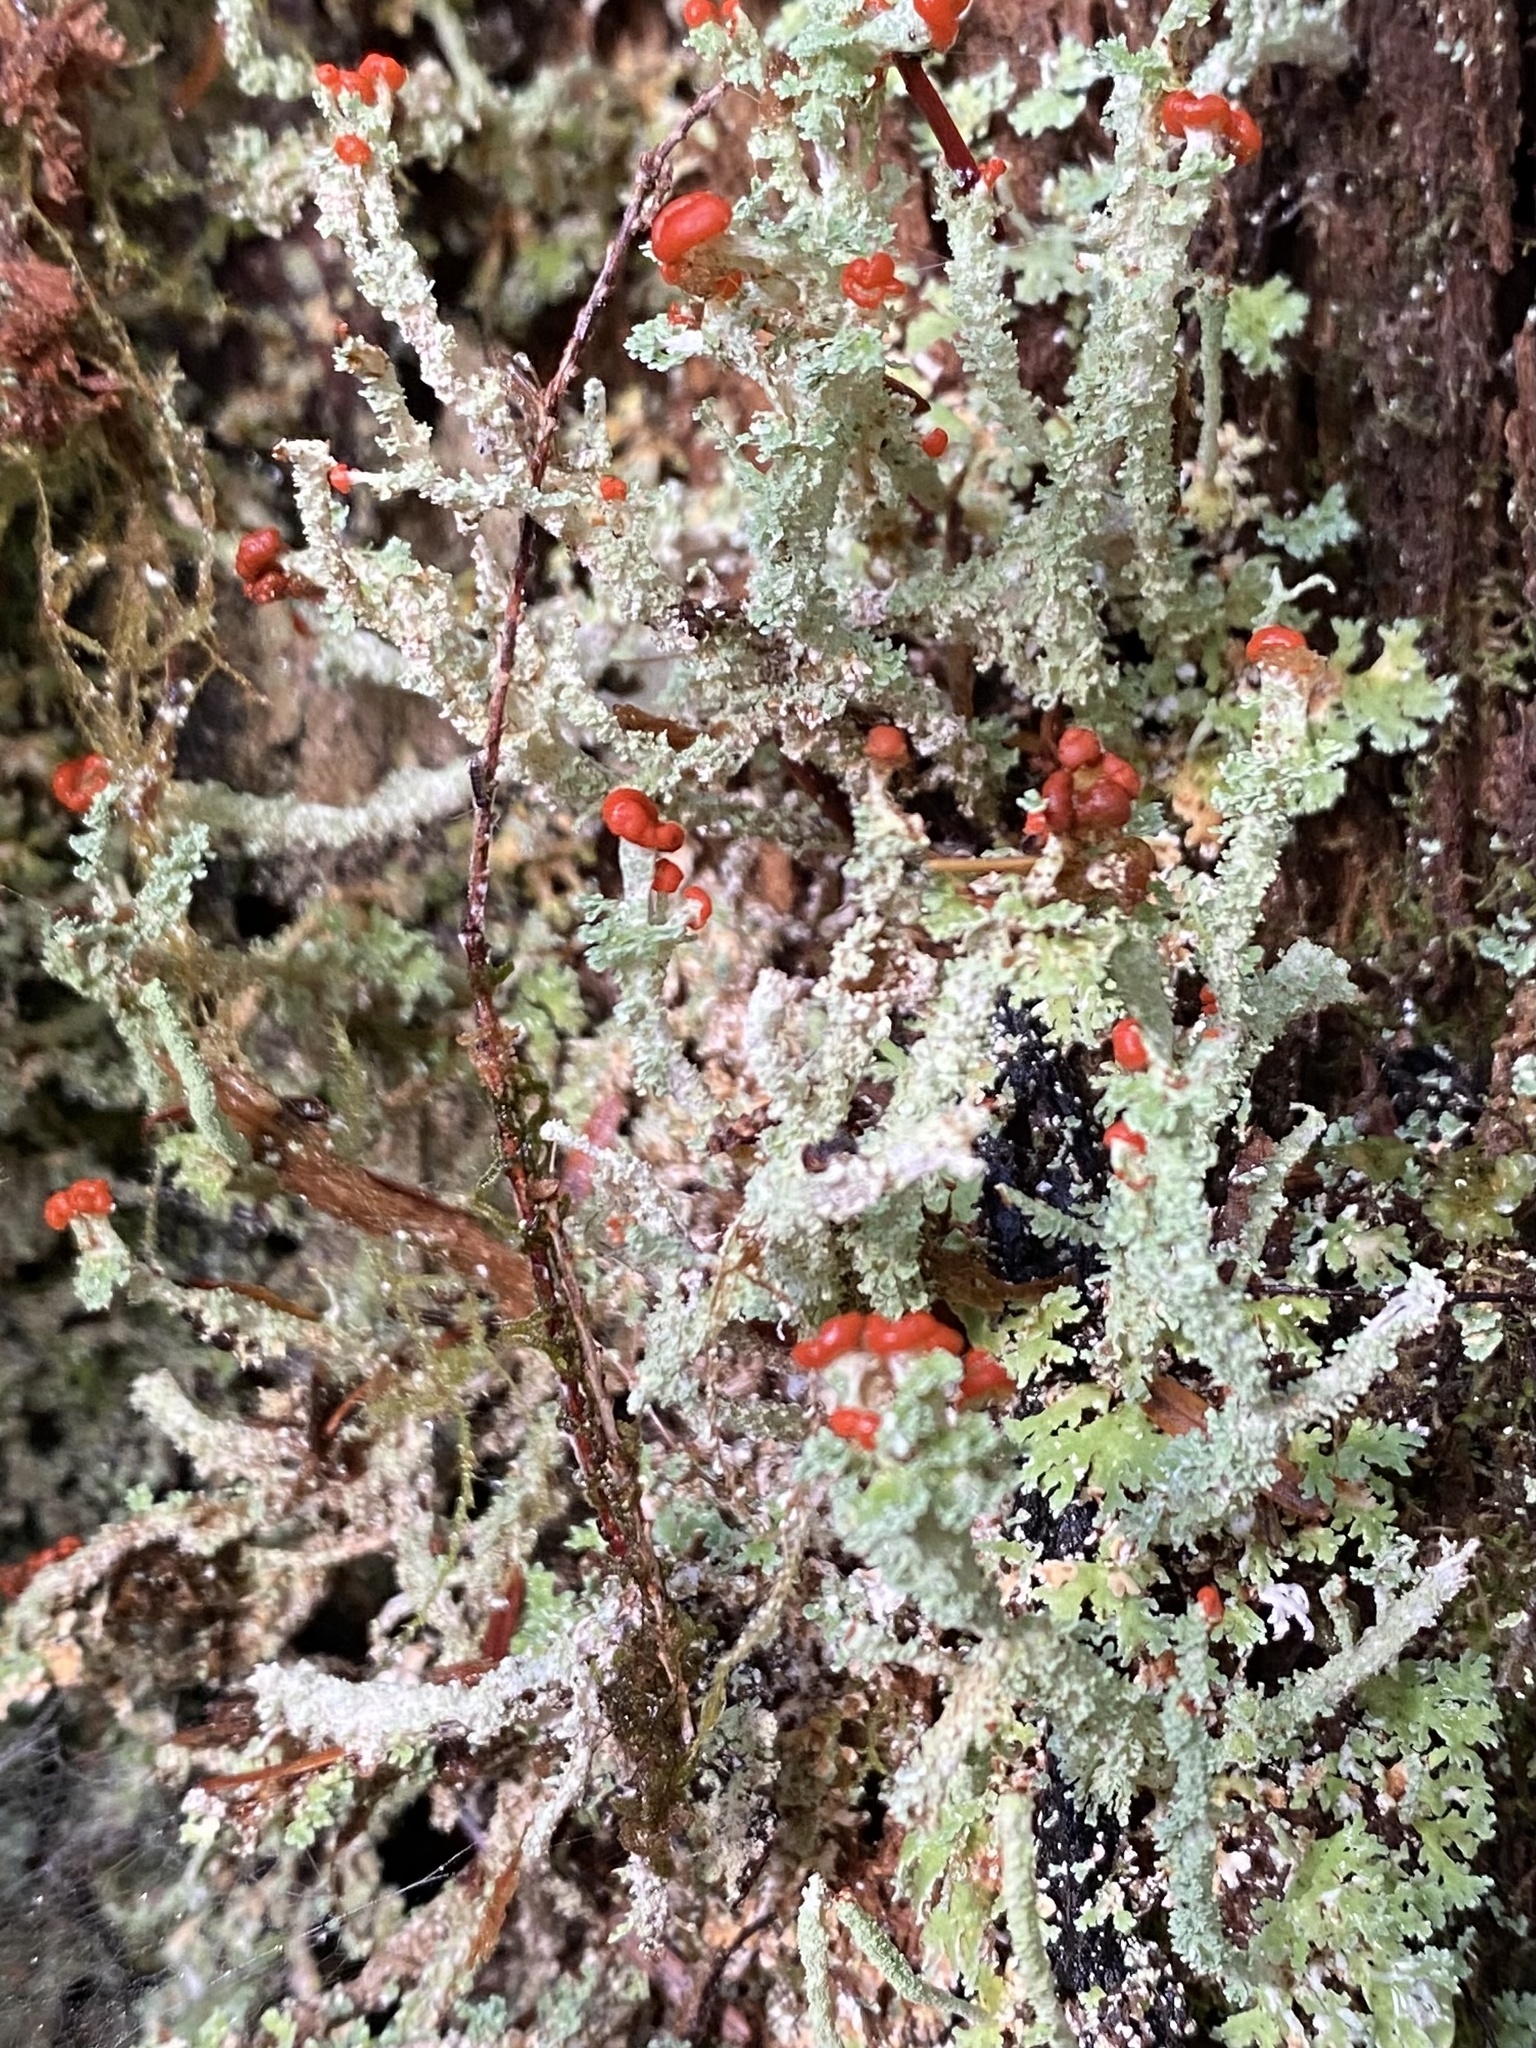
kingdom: Fungi
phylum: Ascomycota
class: Lecanoromycetes
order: Lecanorales
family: Cladoniaceae
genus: Cladonia
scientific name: Cladonia bellidiflora
